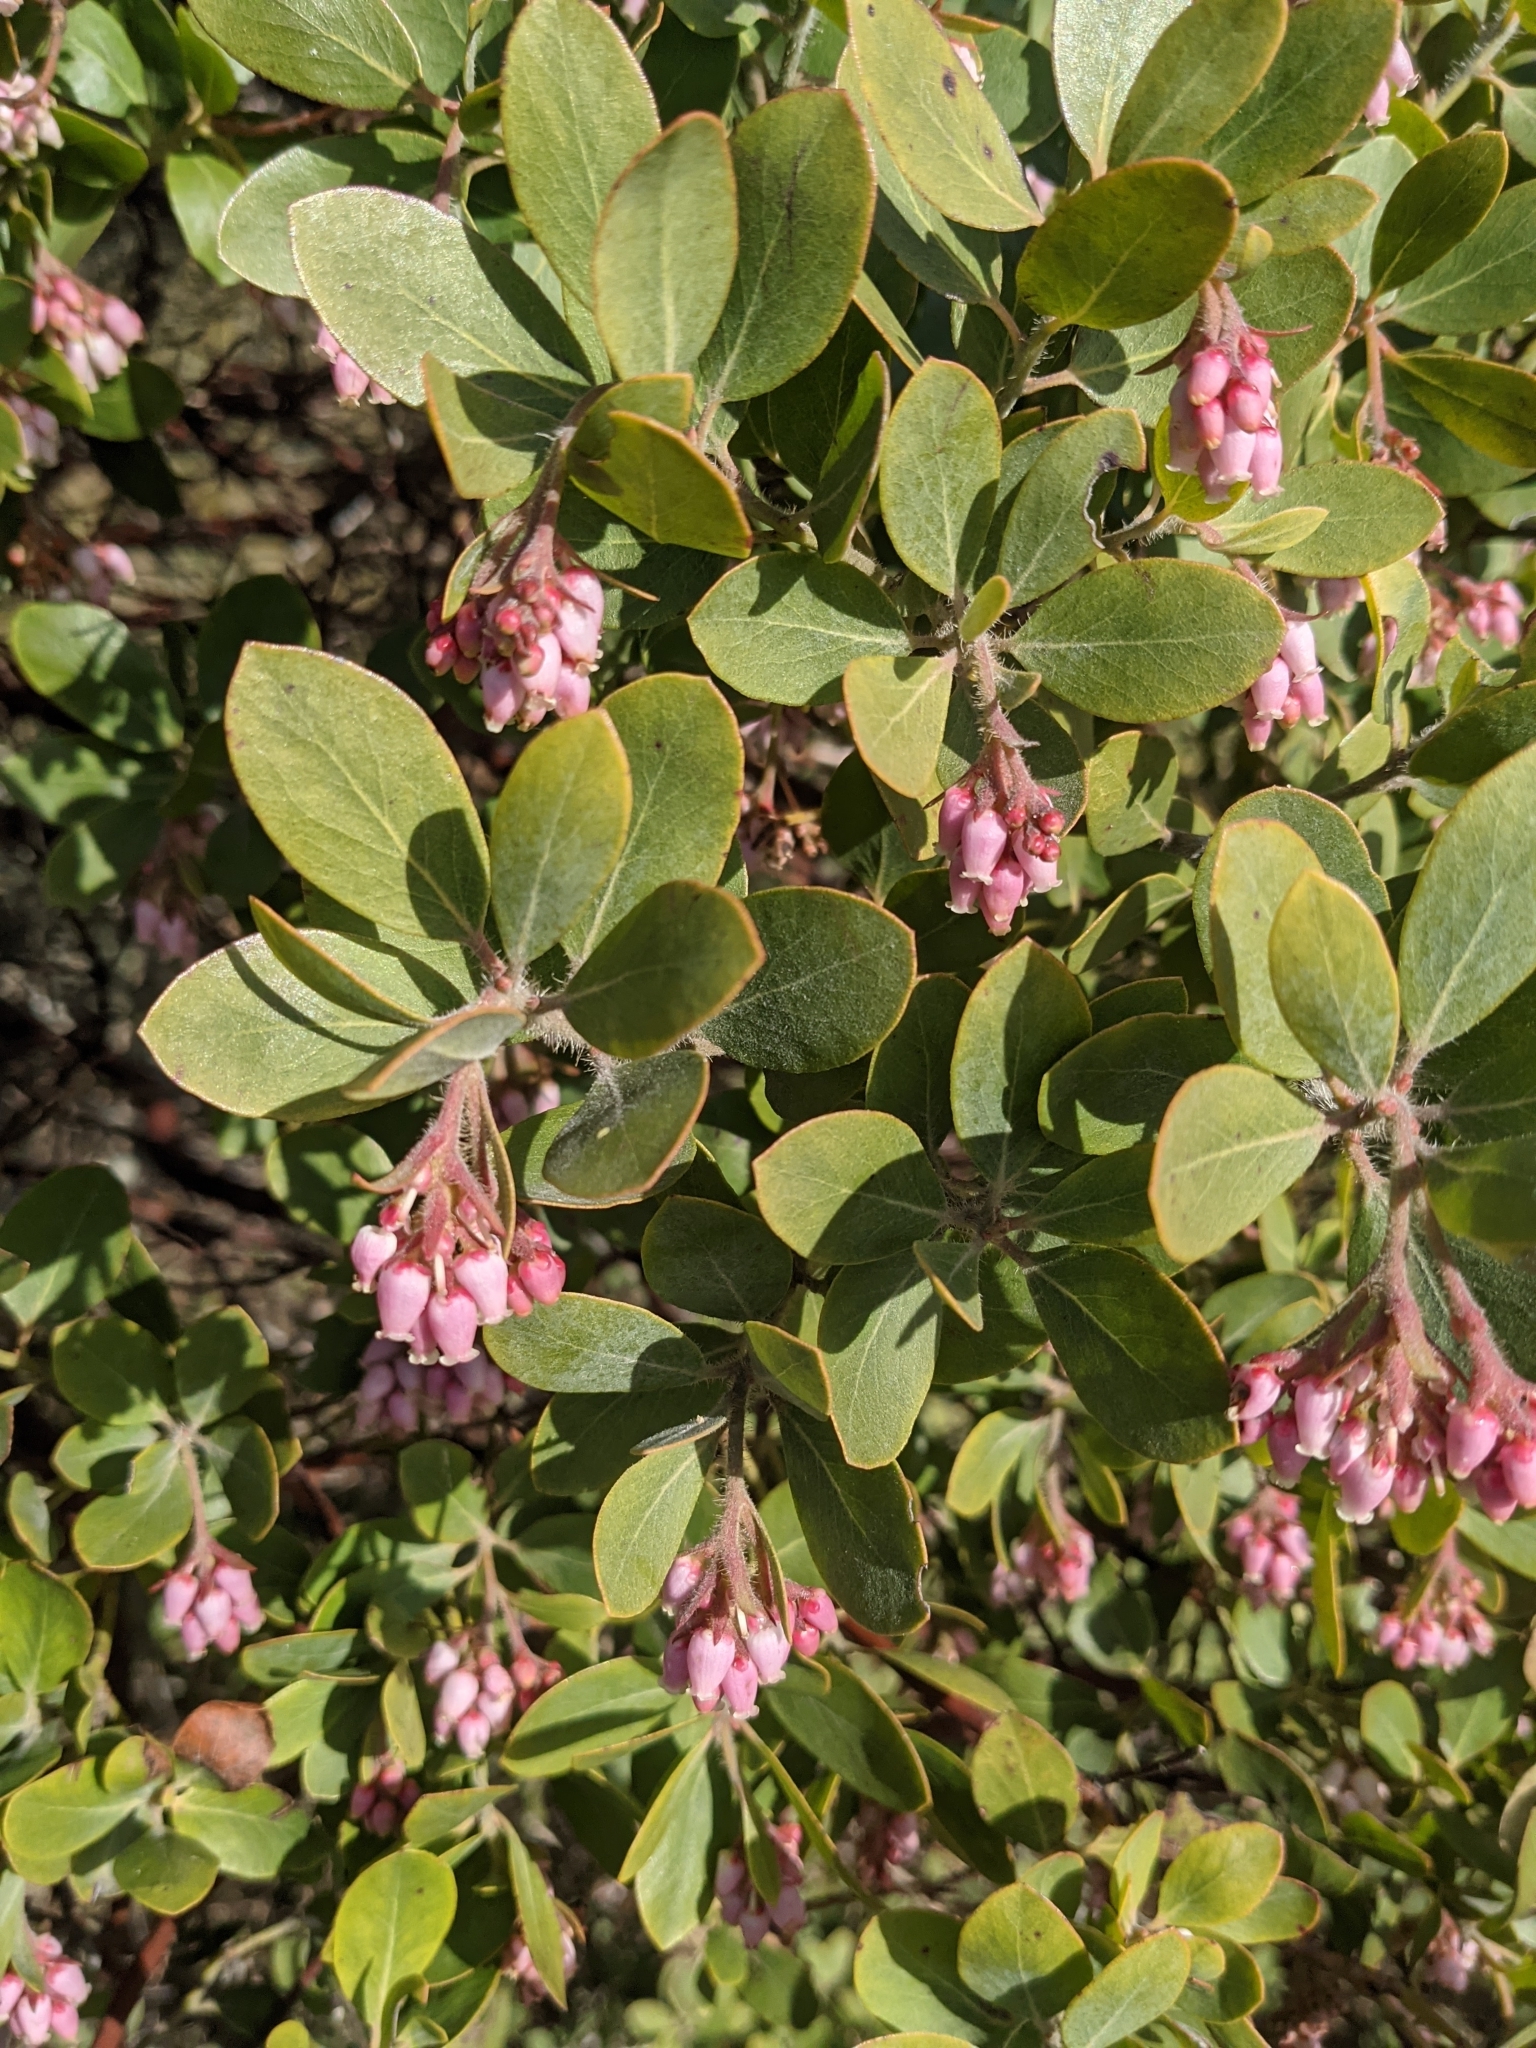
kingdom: Plantae
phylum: Tracheophyta
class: Magnoliopsida
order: Ericales
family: Ericaceae
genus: Arctostaphylos
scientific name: Arctostaphylos columbiana
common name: Bristly bearberry
